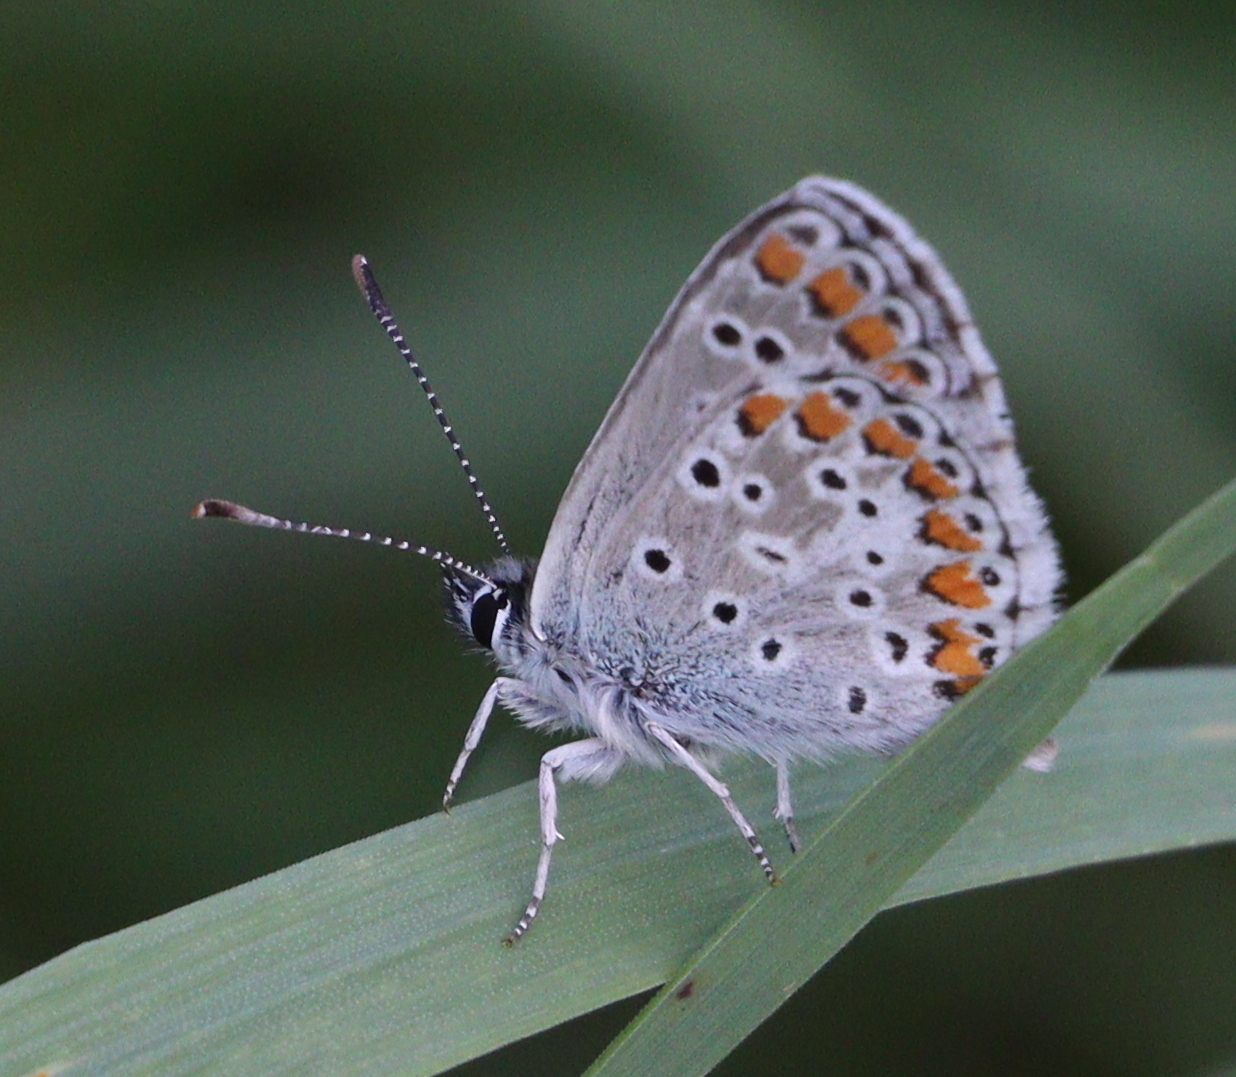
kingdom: Animalia
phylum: Arthropoda
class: Insecta
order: Lepidoptera
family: Lycaenidae
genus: Aricia
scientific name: Aricia agestis
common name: Brown argus
